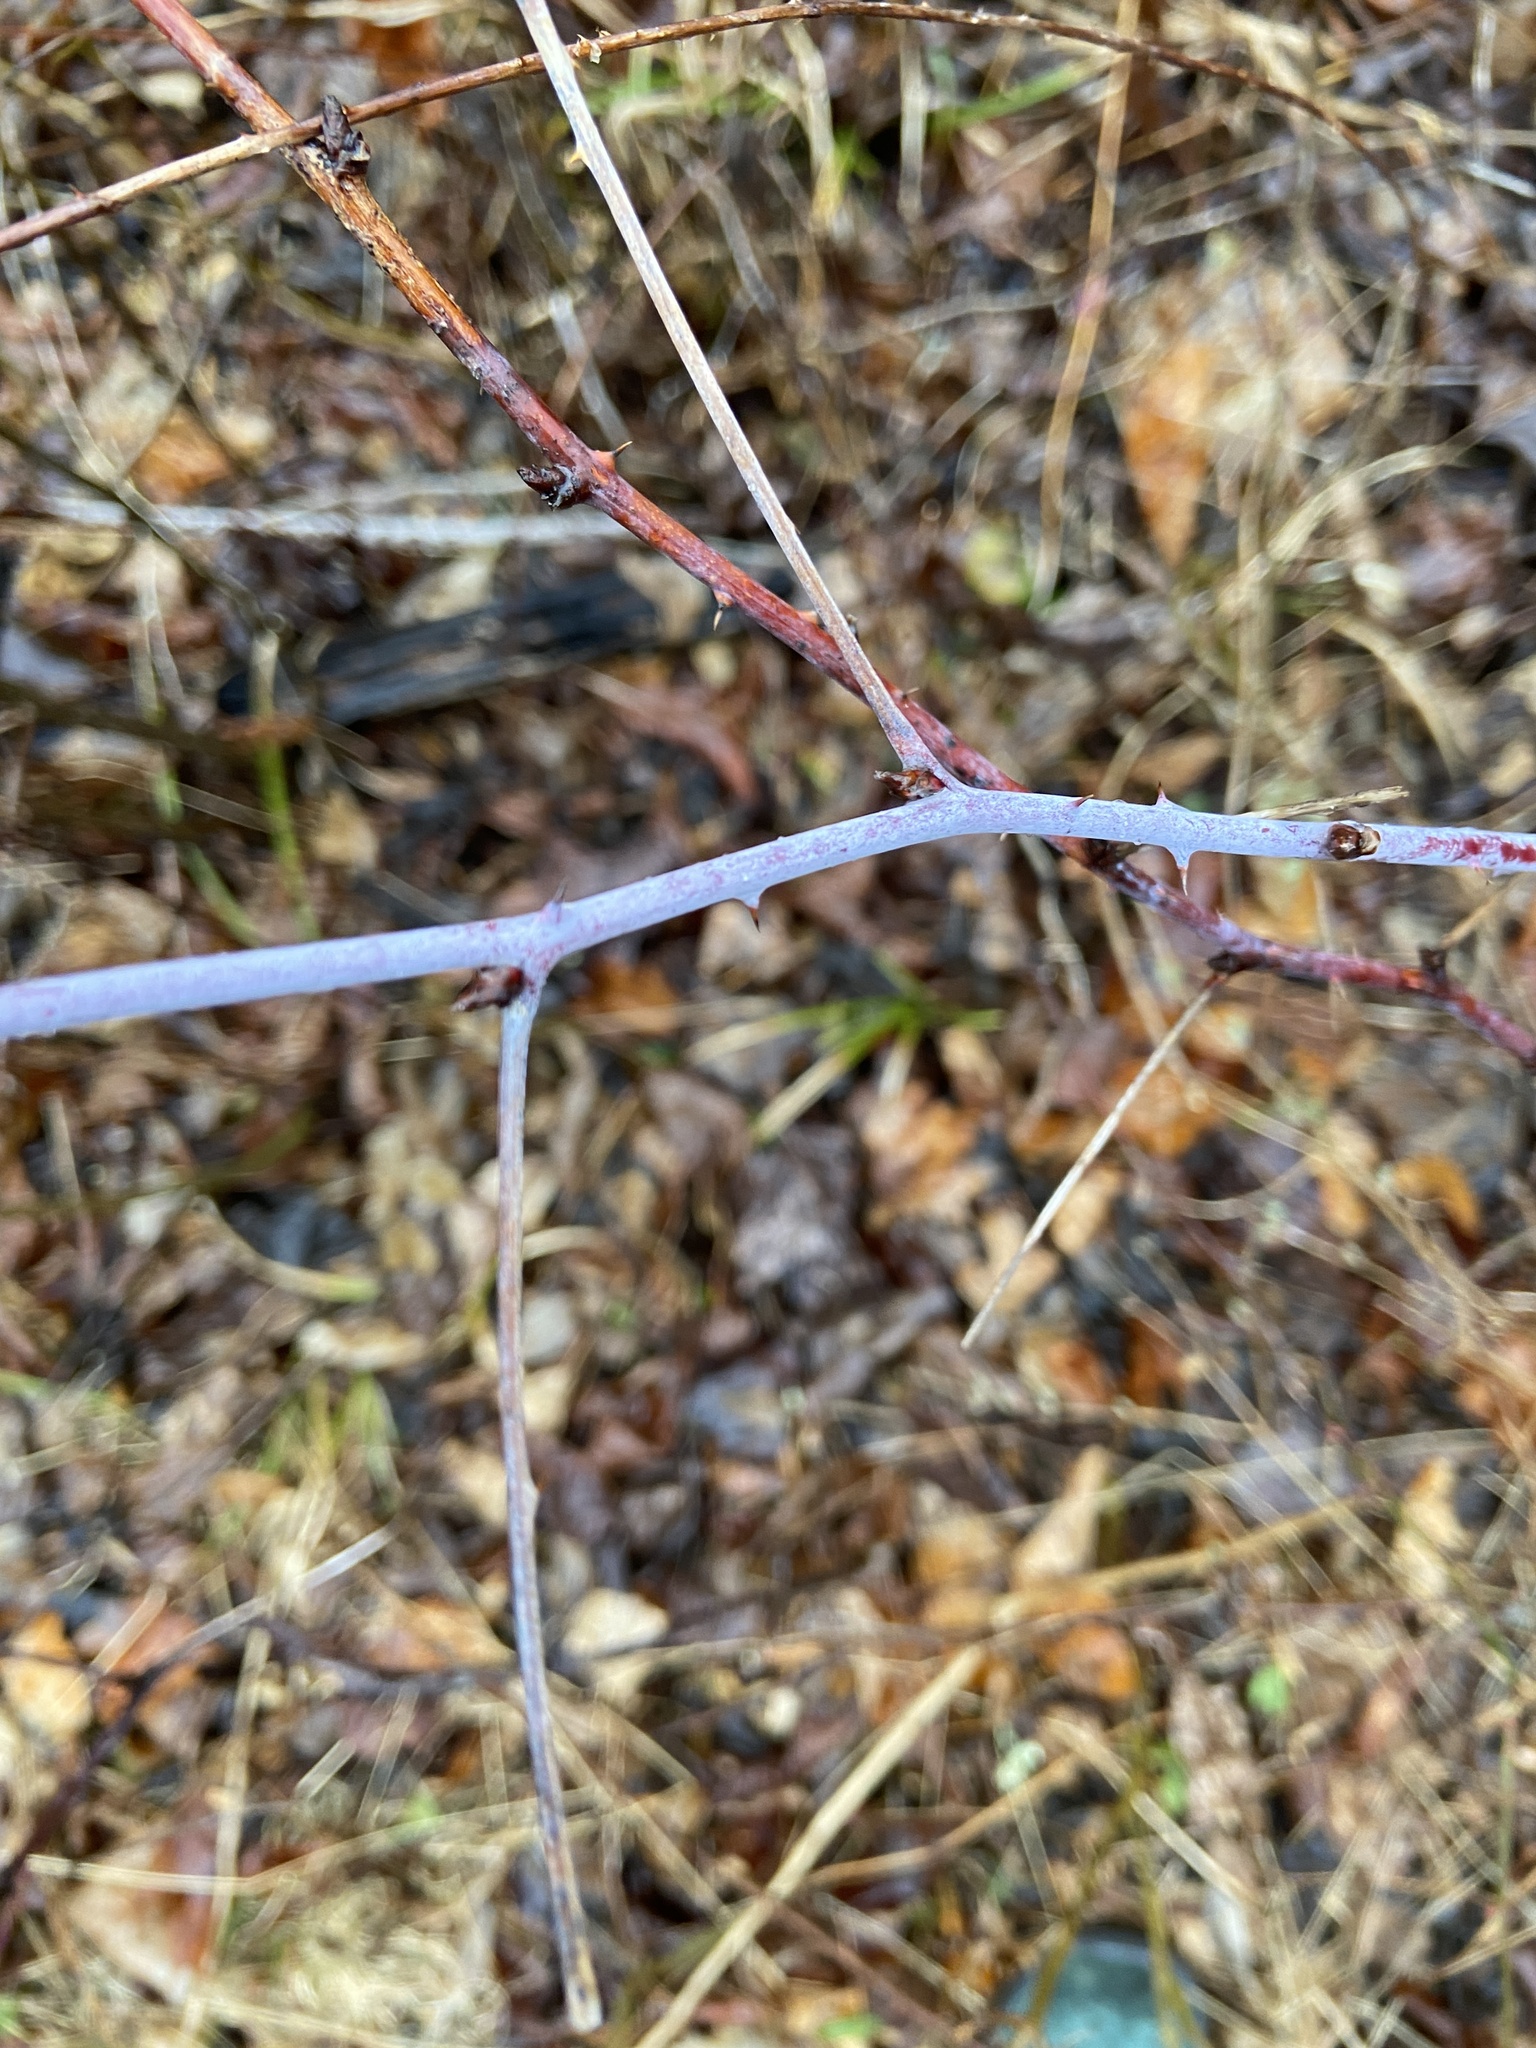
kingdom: Plantae
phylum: Tracheophyta
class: Magnoliopsida
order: Rosales
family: Rosaceae
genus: Rubus
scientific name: Rubus occidentalis
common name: Black raspberry
